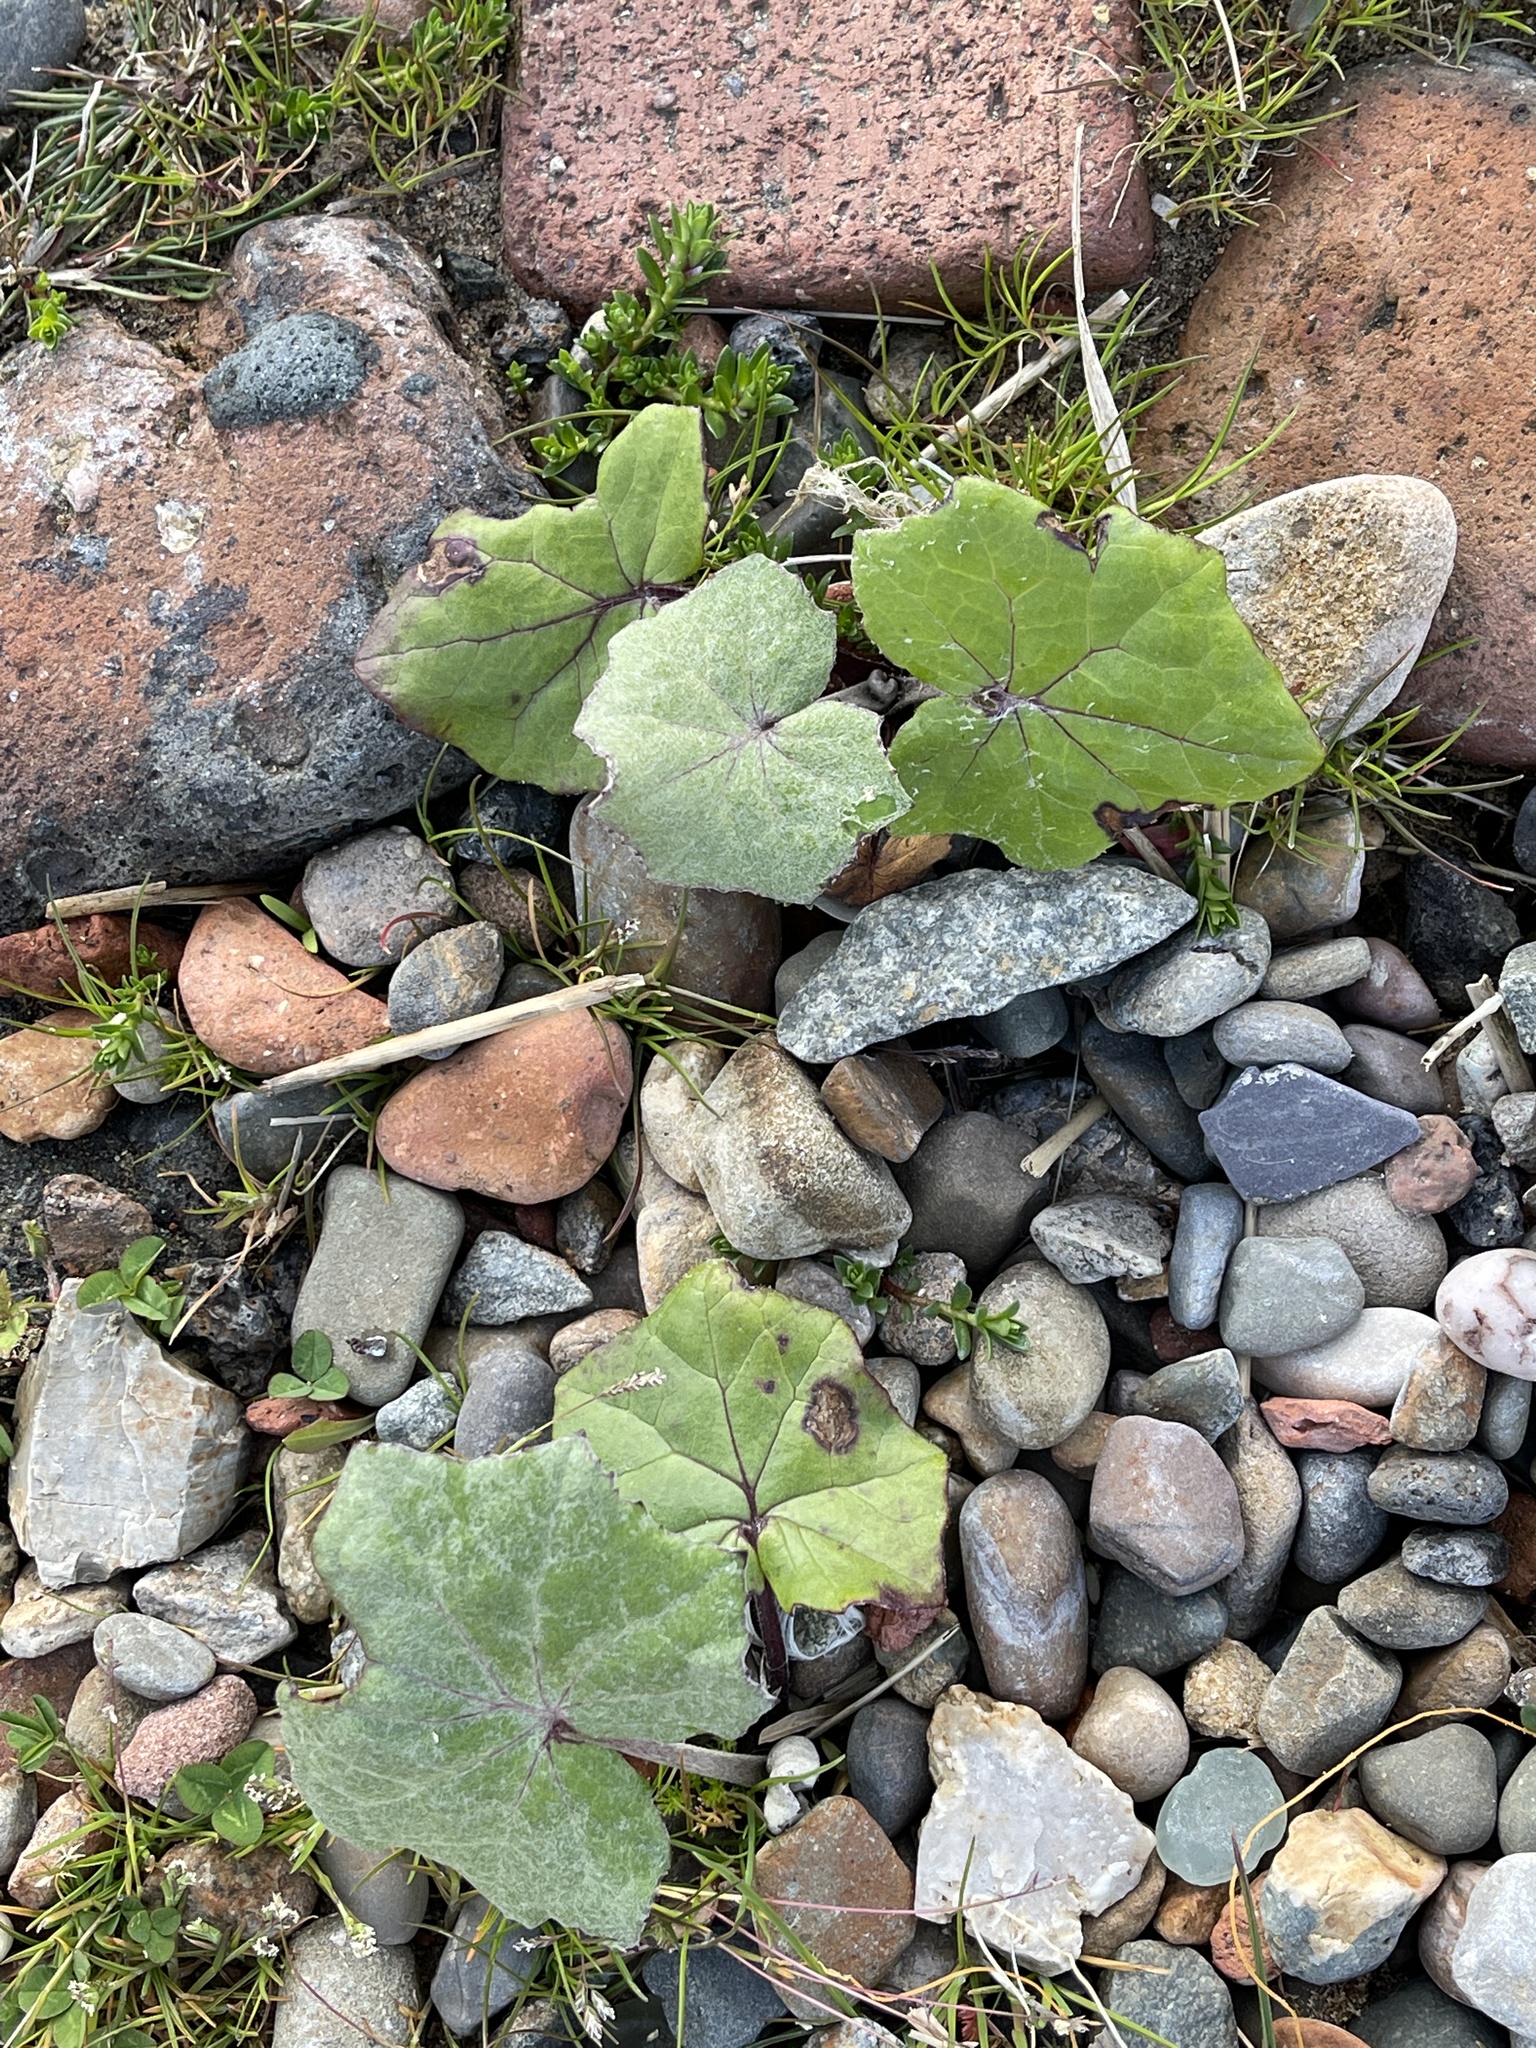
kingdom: Plantae
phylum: Tracheophyta
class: Magnoliopsida
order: Asterales
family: Asteraceae
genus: Tussilago
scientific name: Tussilago farfara
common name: Coltsfoot
